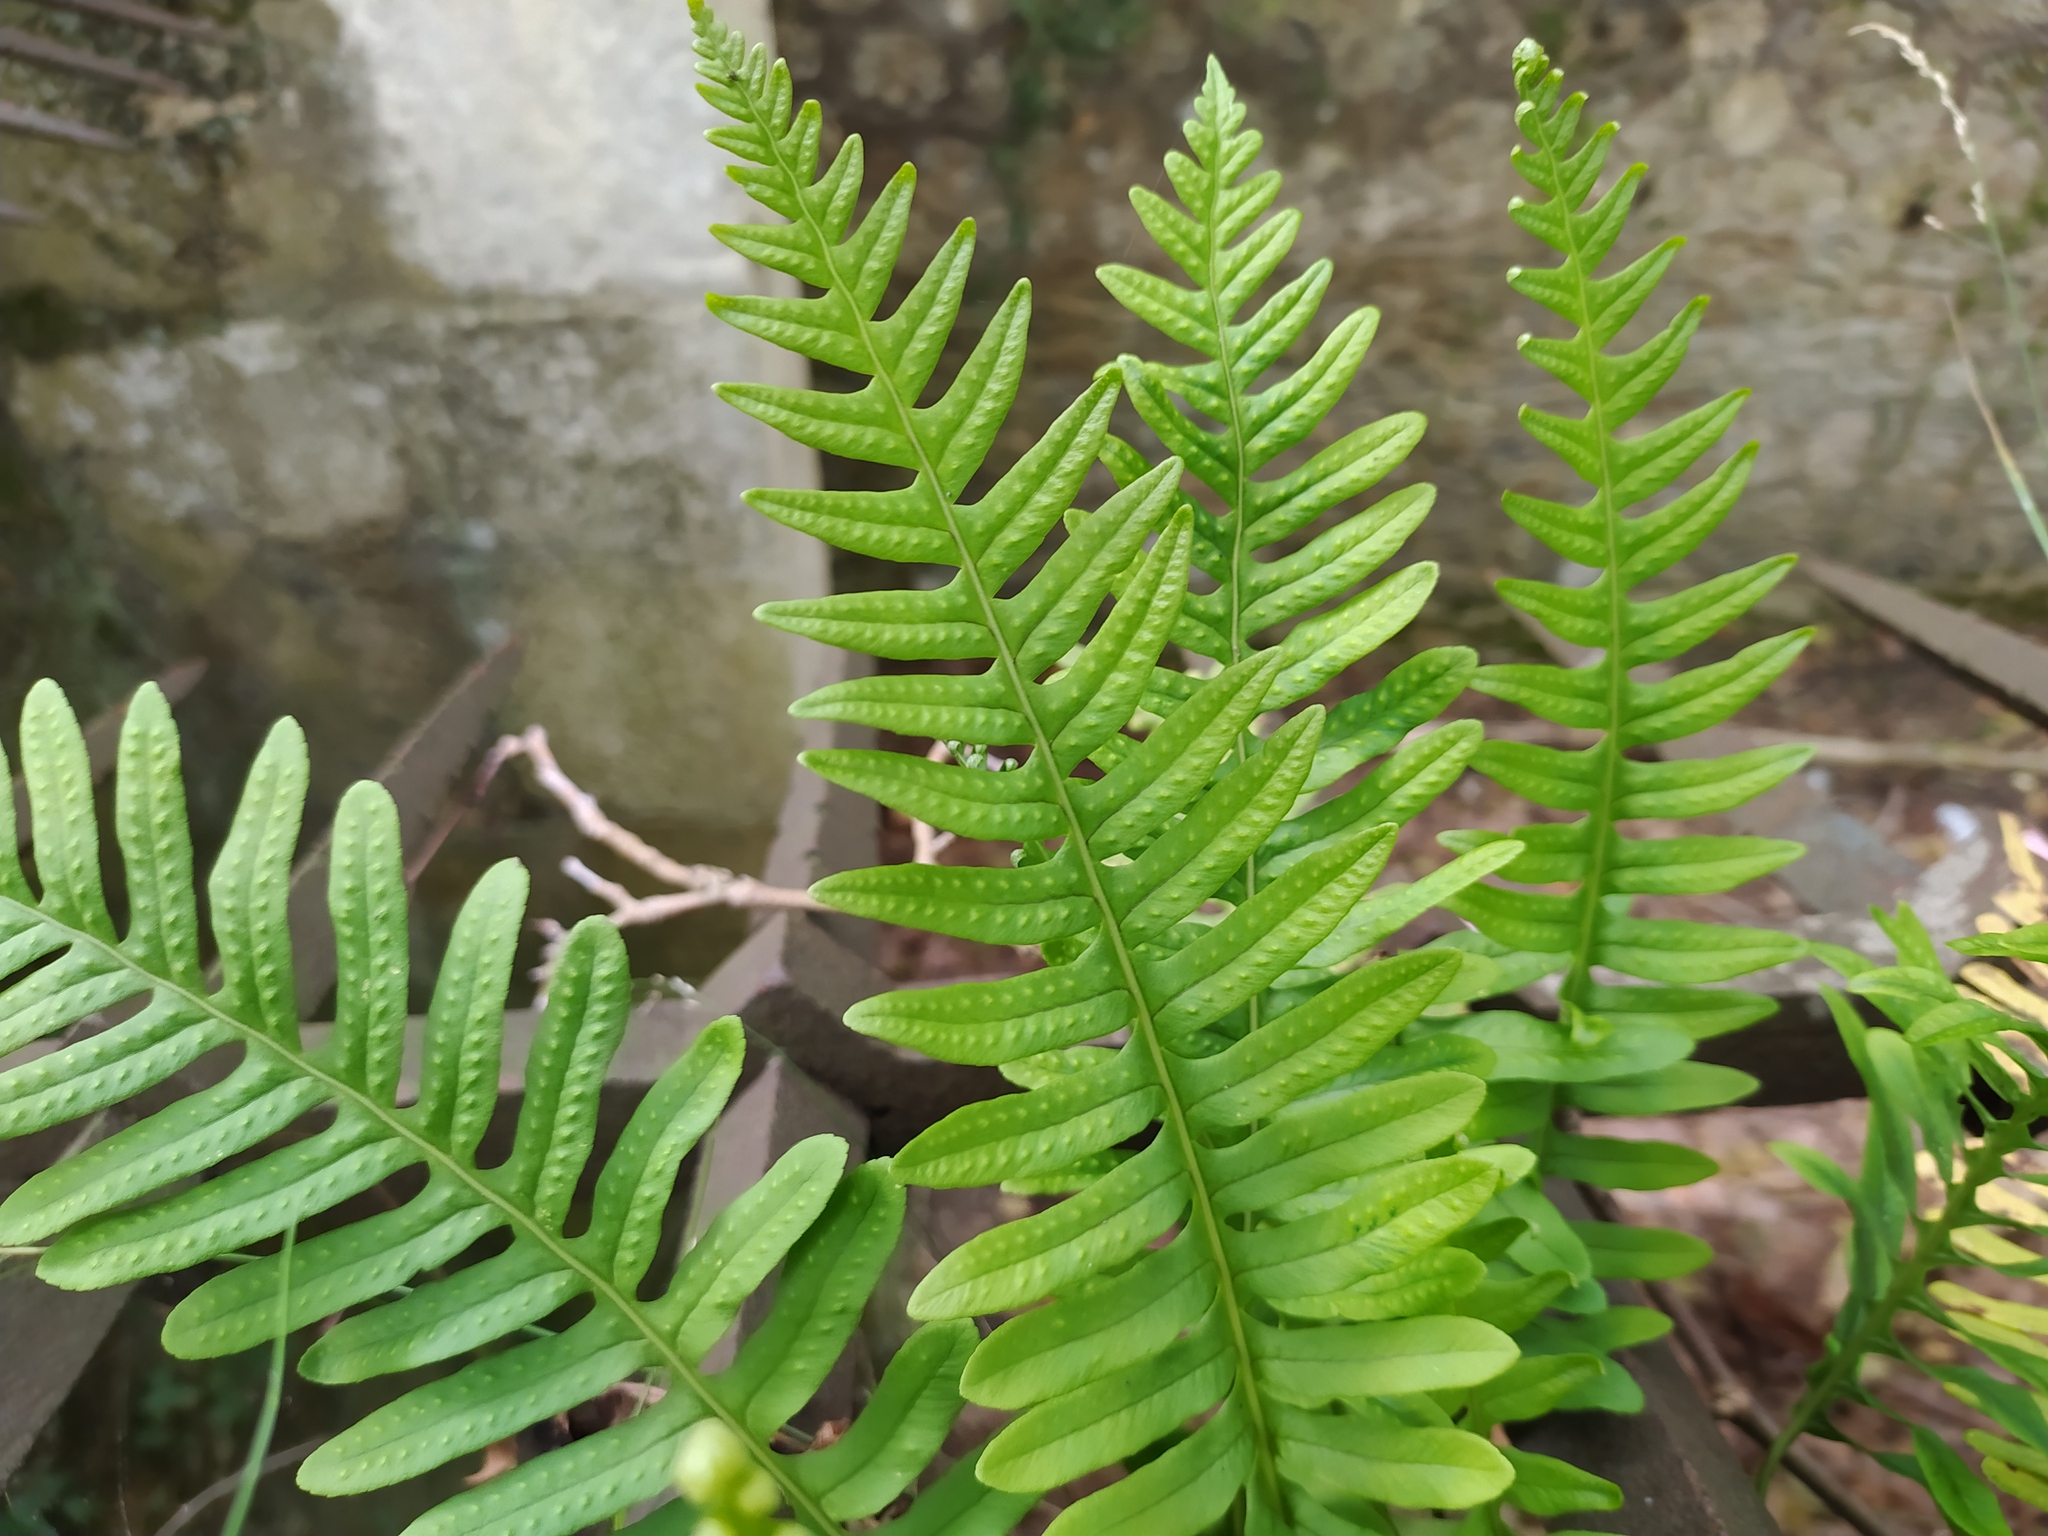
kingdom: Plantae
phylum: Tracheophyta
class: Polypodiopsida
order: Polypodiales
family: Polypodiaceae
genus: Polypodium
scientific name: Polypodium vulgare
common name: Common polypody
